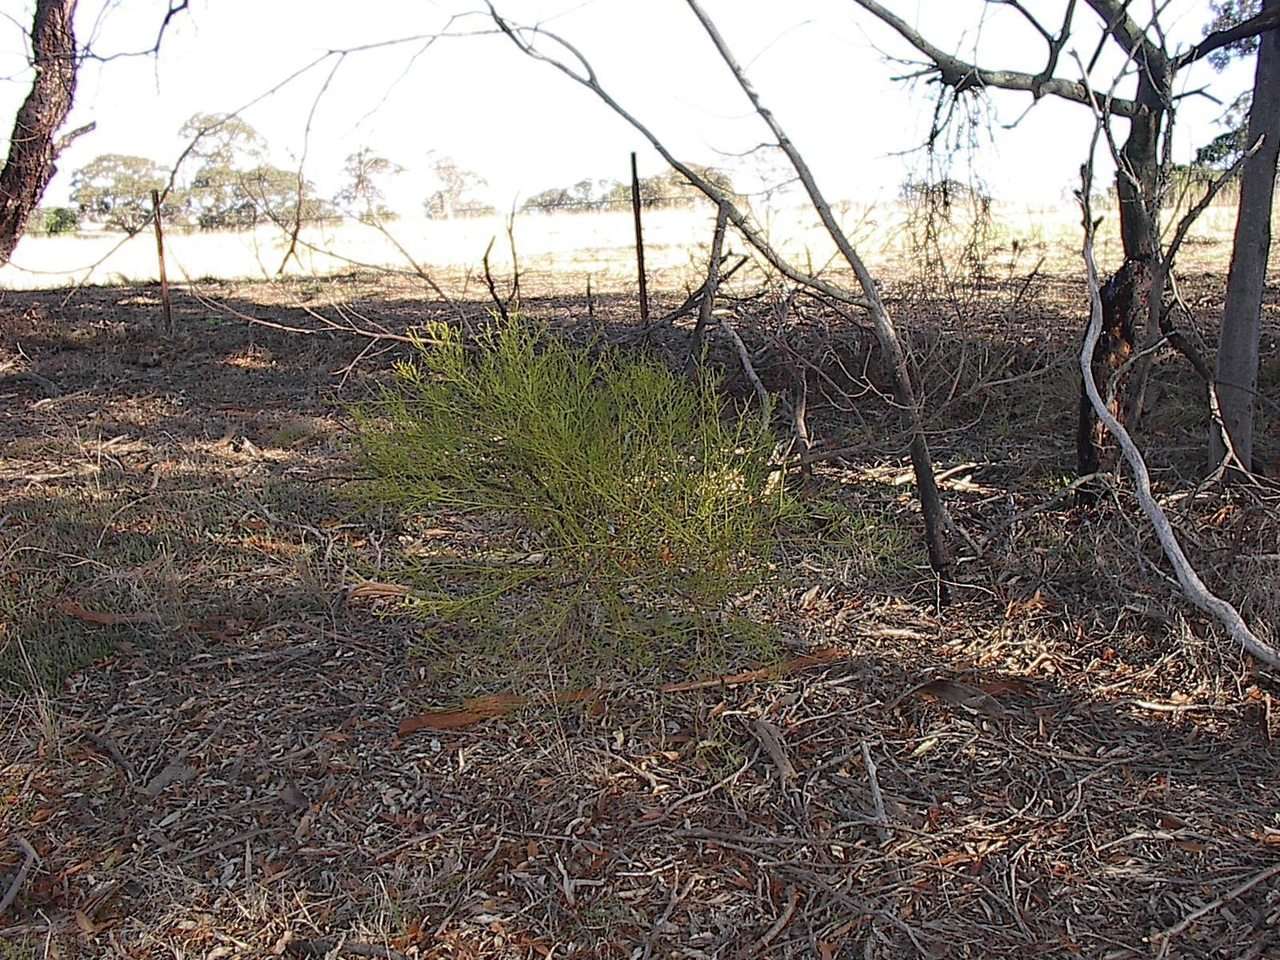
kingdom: Plantae
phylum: Tracheophyta
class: Magnoliopsida
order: Santalales
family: Loranthaceae
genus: Amyema
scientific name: Amyema preissii
